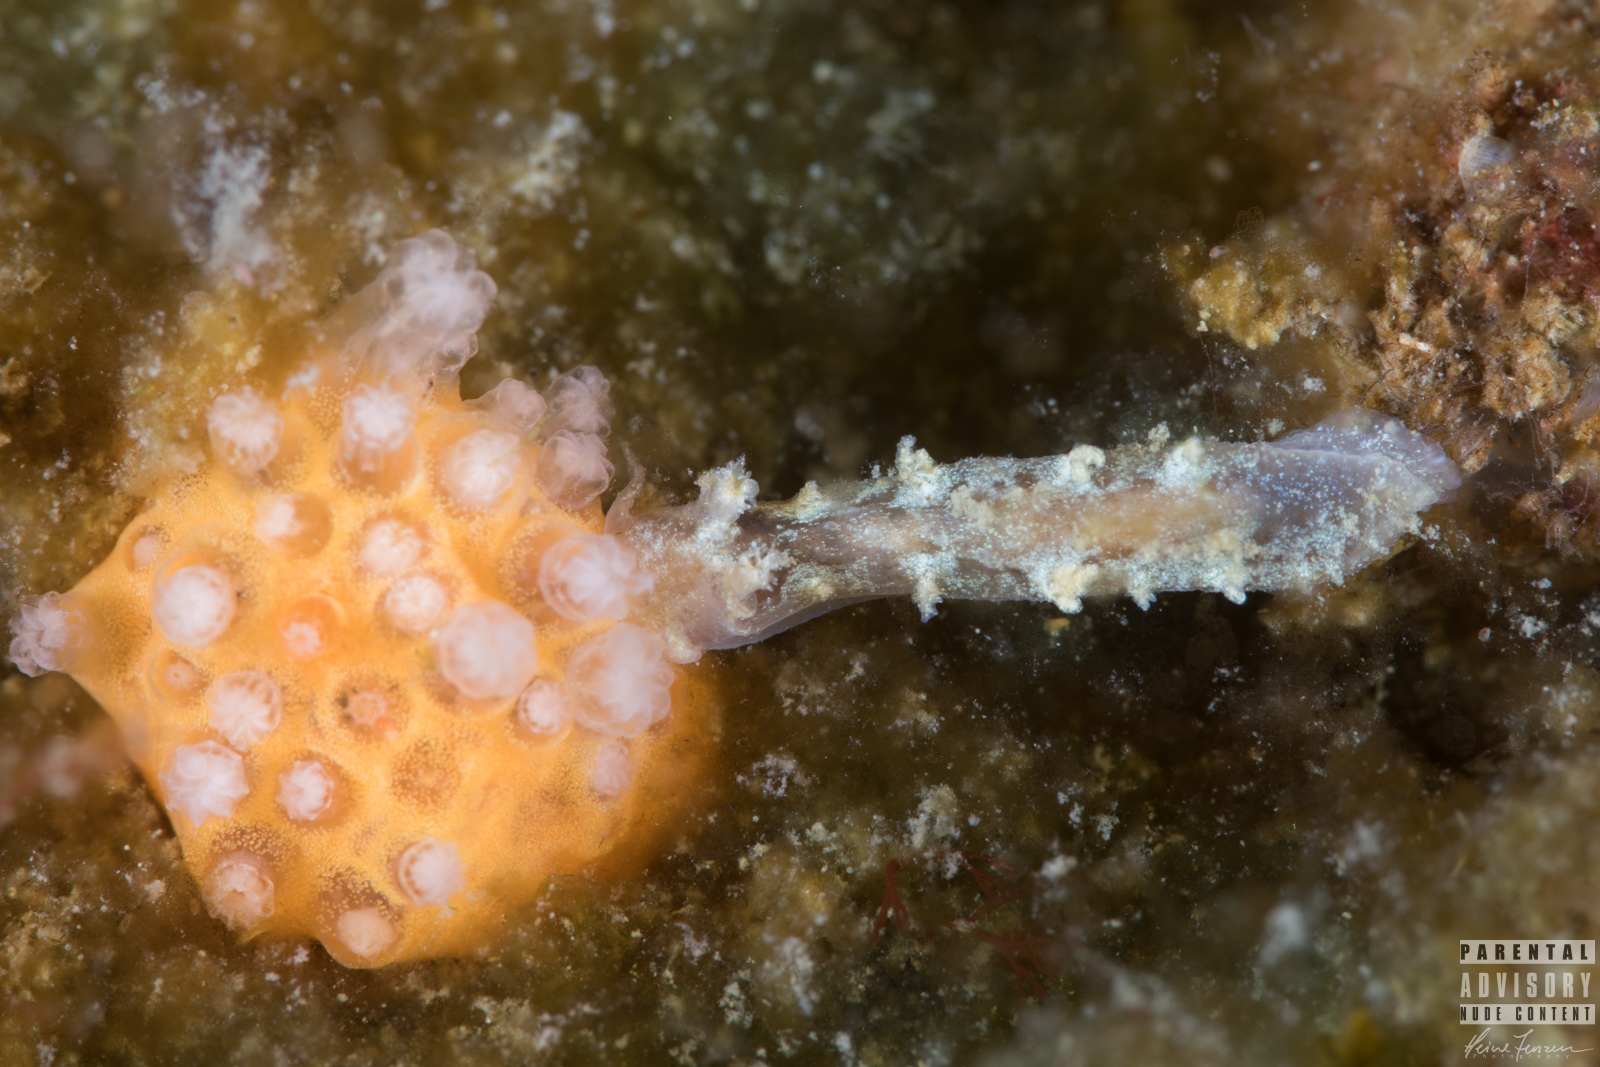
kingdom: Animalia
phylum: Mollusca
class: Gastropoda
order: Nudibranchia
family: Tritoniidae
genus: Duvaucelia
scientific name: Duvaucelia plebeia
